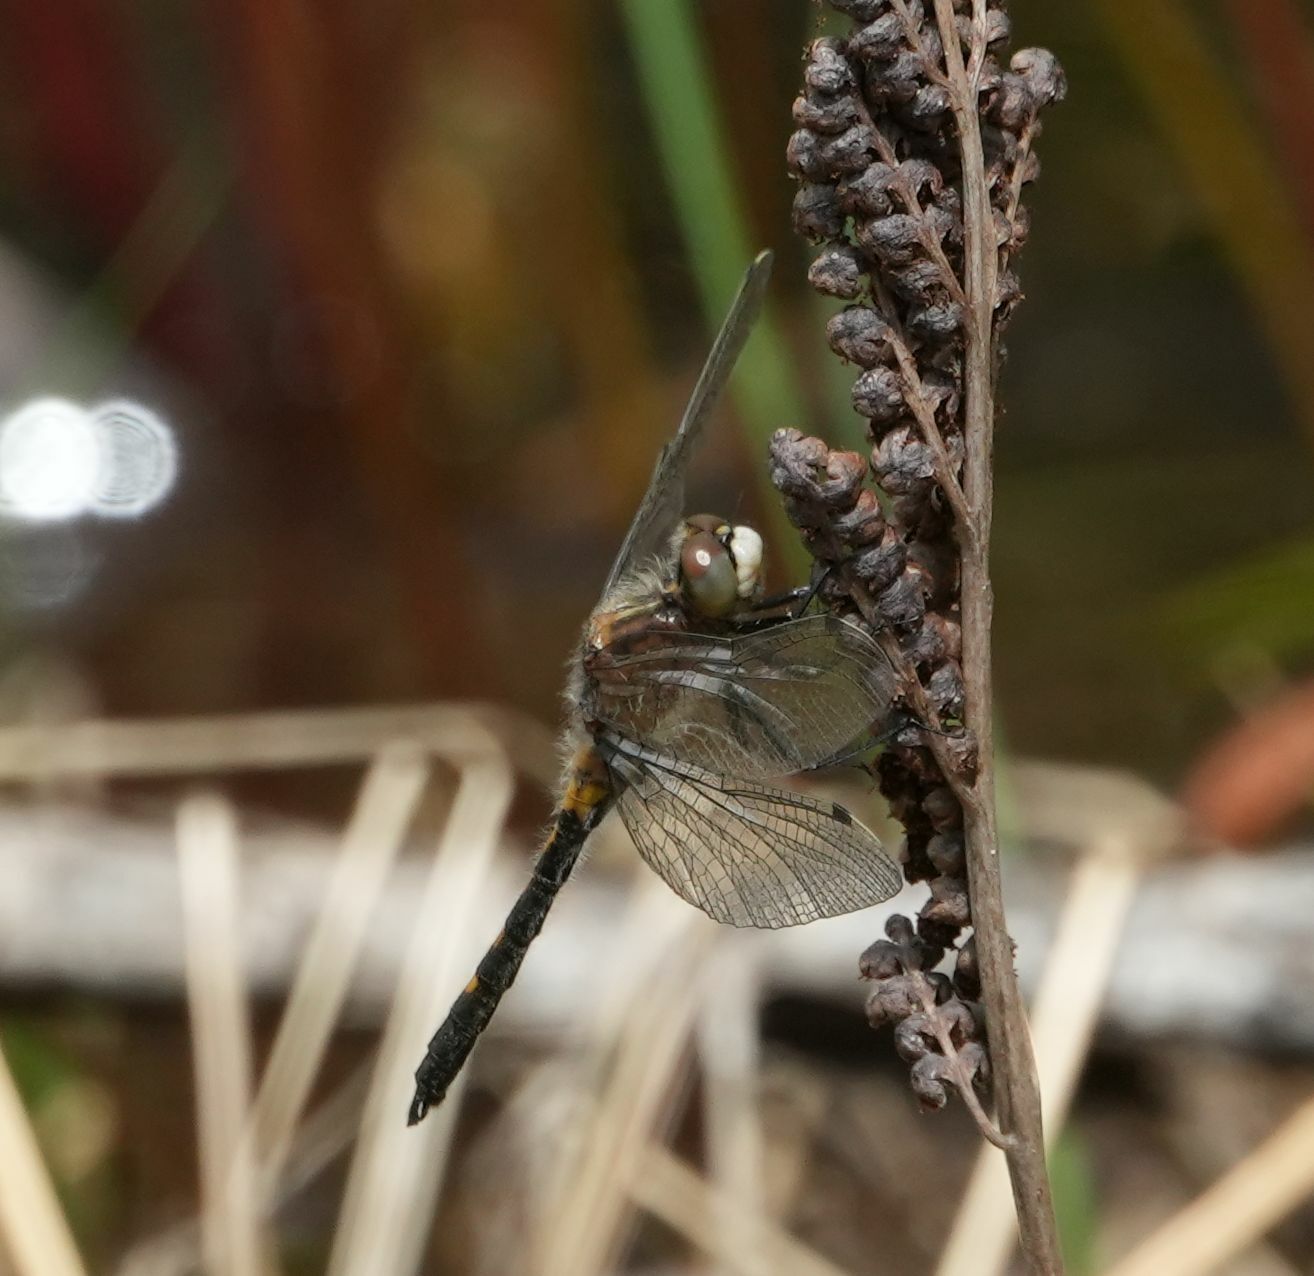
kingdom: Animalia
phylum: Arthropoda
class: Insecta
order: Odonata
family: Libellulidae
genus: Leucorrhinia
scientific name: Leucorrhinia intacta
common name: Dot-tailed whiteface
